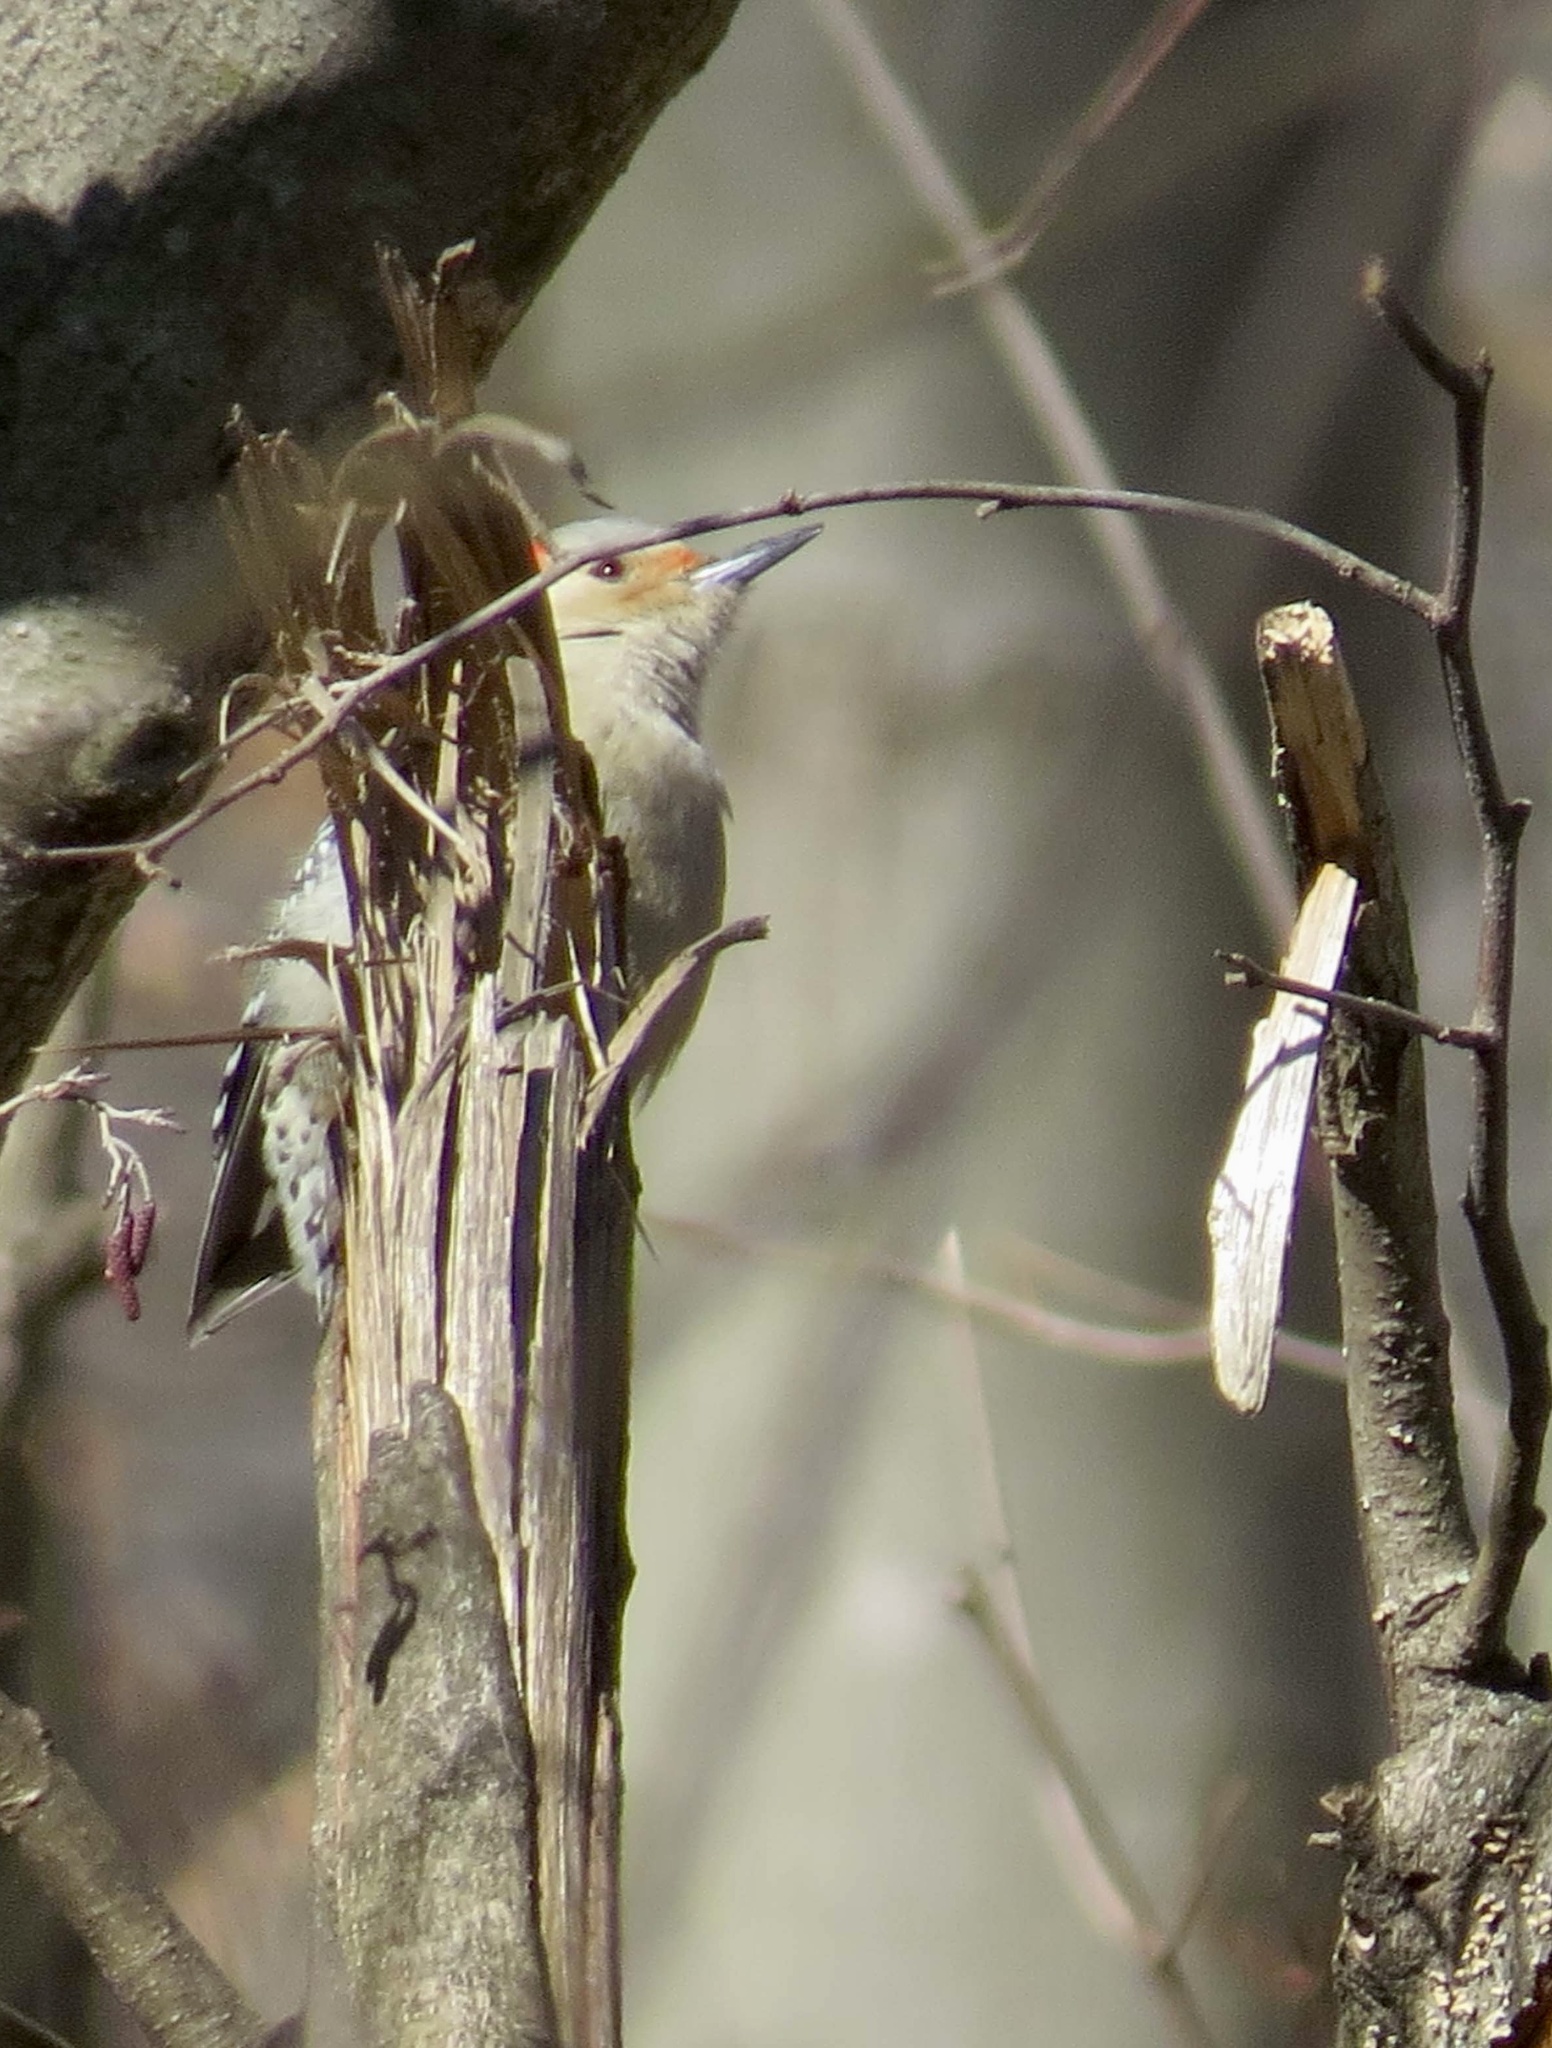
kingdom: Animalia
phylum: Chordata
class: Aves
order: Piciformes
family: Picidae
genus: Melanerpes
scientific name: Melanerpes carolinus
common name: Red-bellied woodpecker
